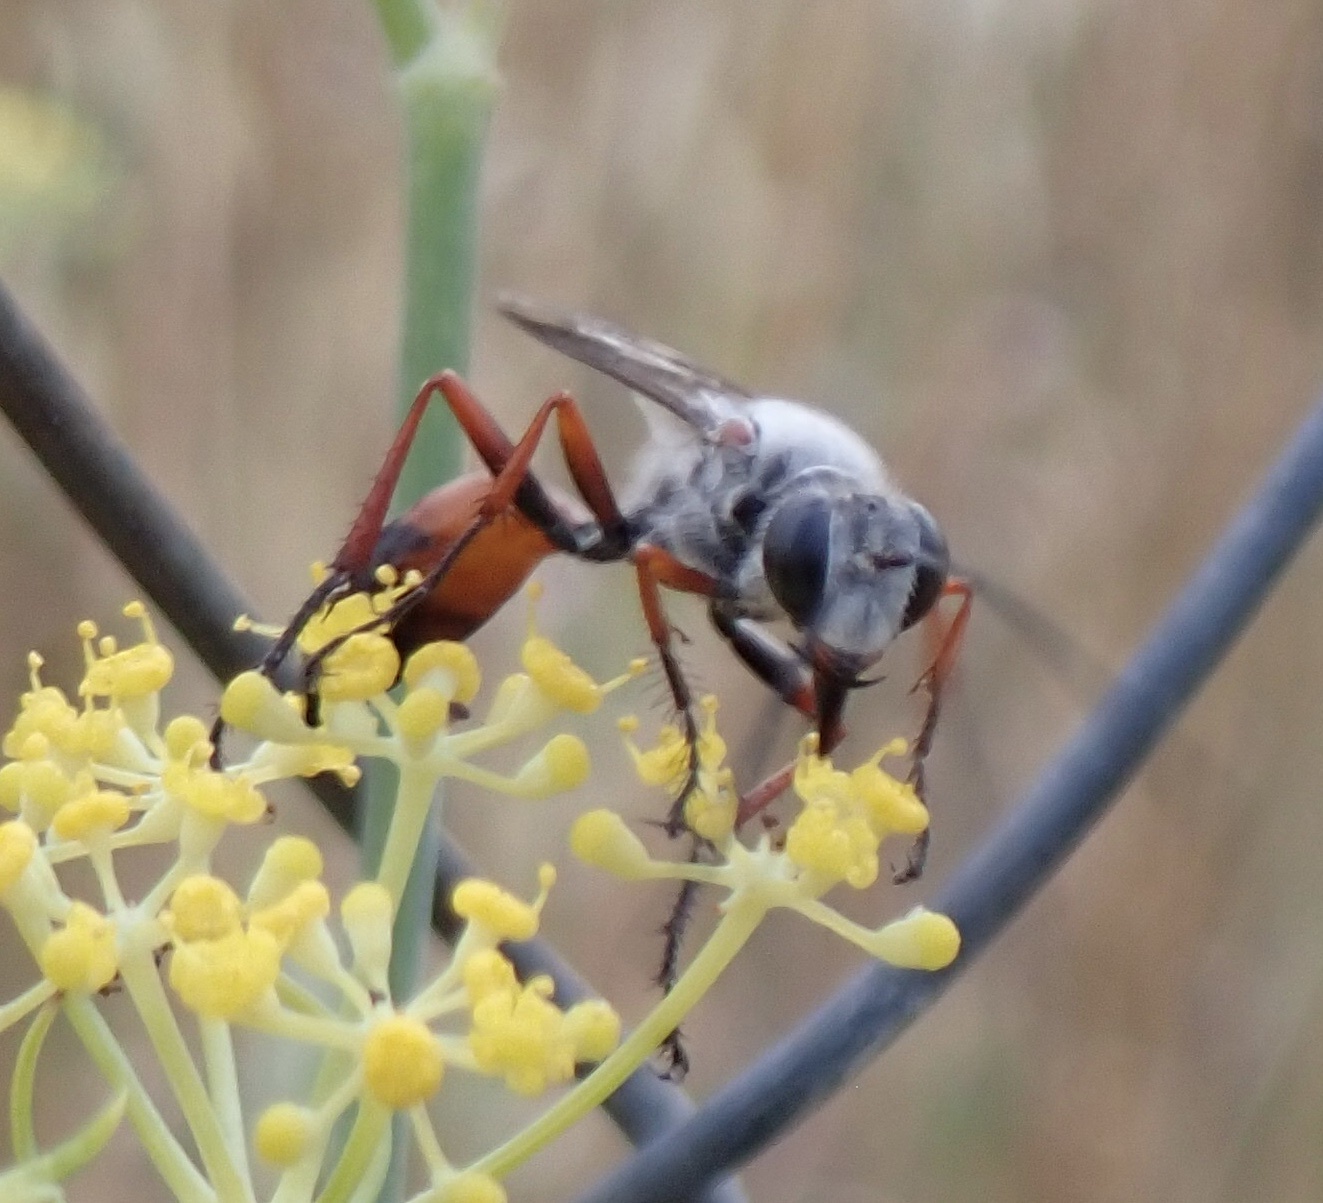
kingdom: Animalia
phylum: Arthropoda
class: Insecta
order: Hymenoptera
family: Sphecidae
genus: Sphex
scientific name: Sphex pruinosus
